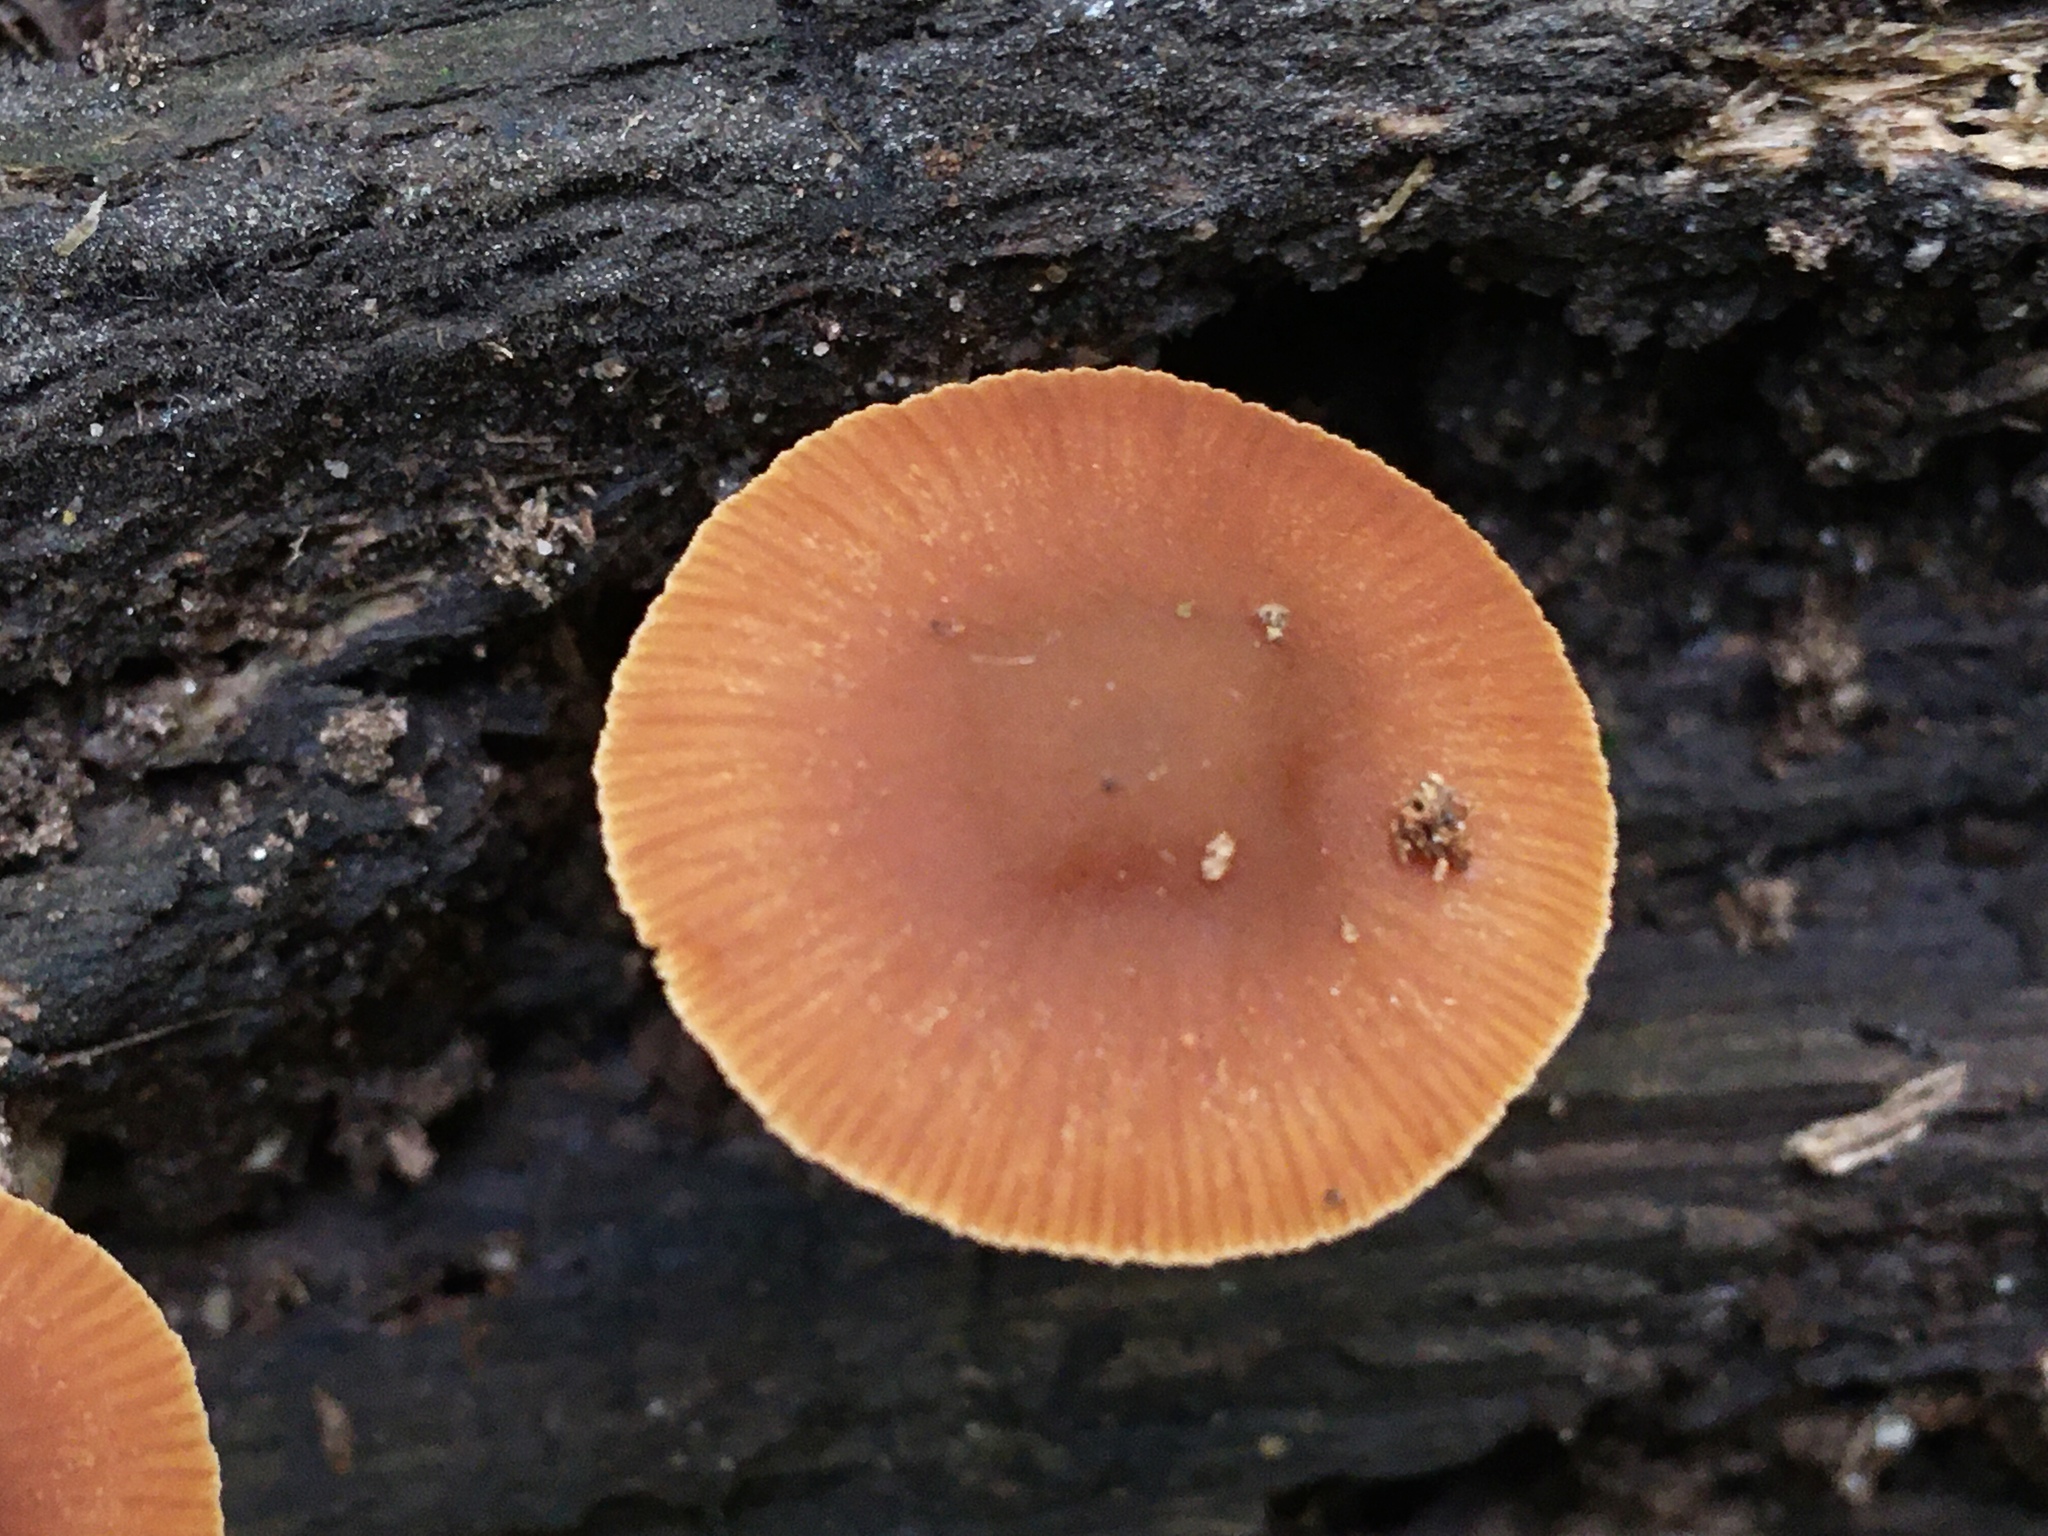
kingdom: Fungi
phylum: Basidiomycota
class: Agaricomycetes
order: Agaricales
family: Bolbitiaceae
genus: Conocybe
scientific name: Conocybe rugosa
